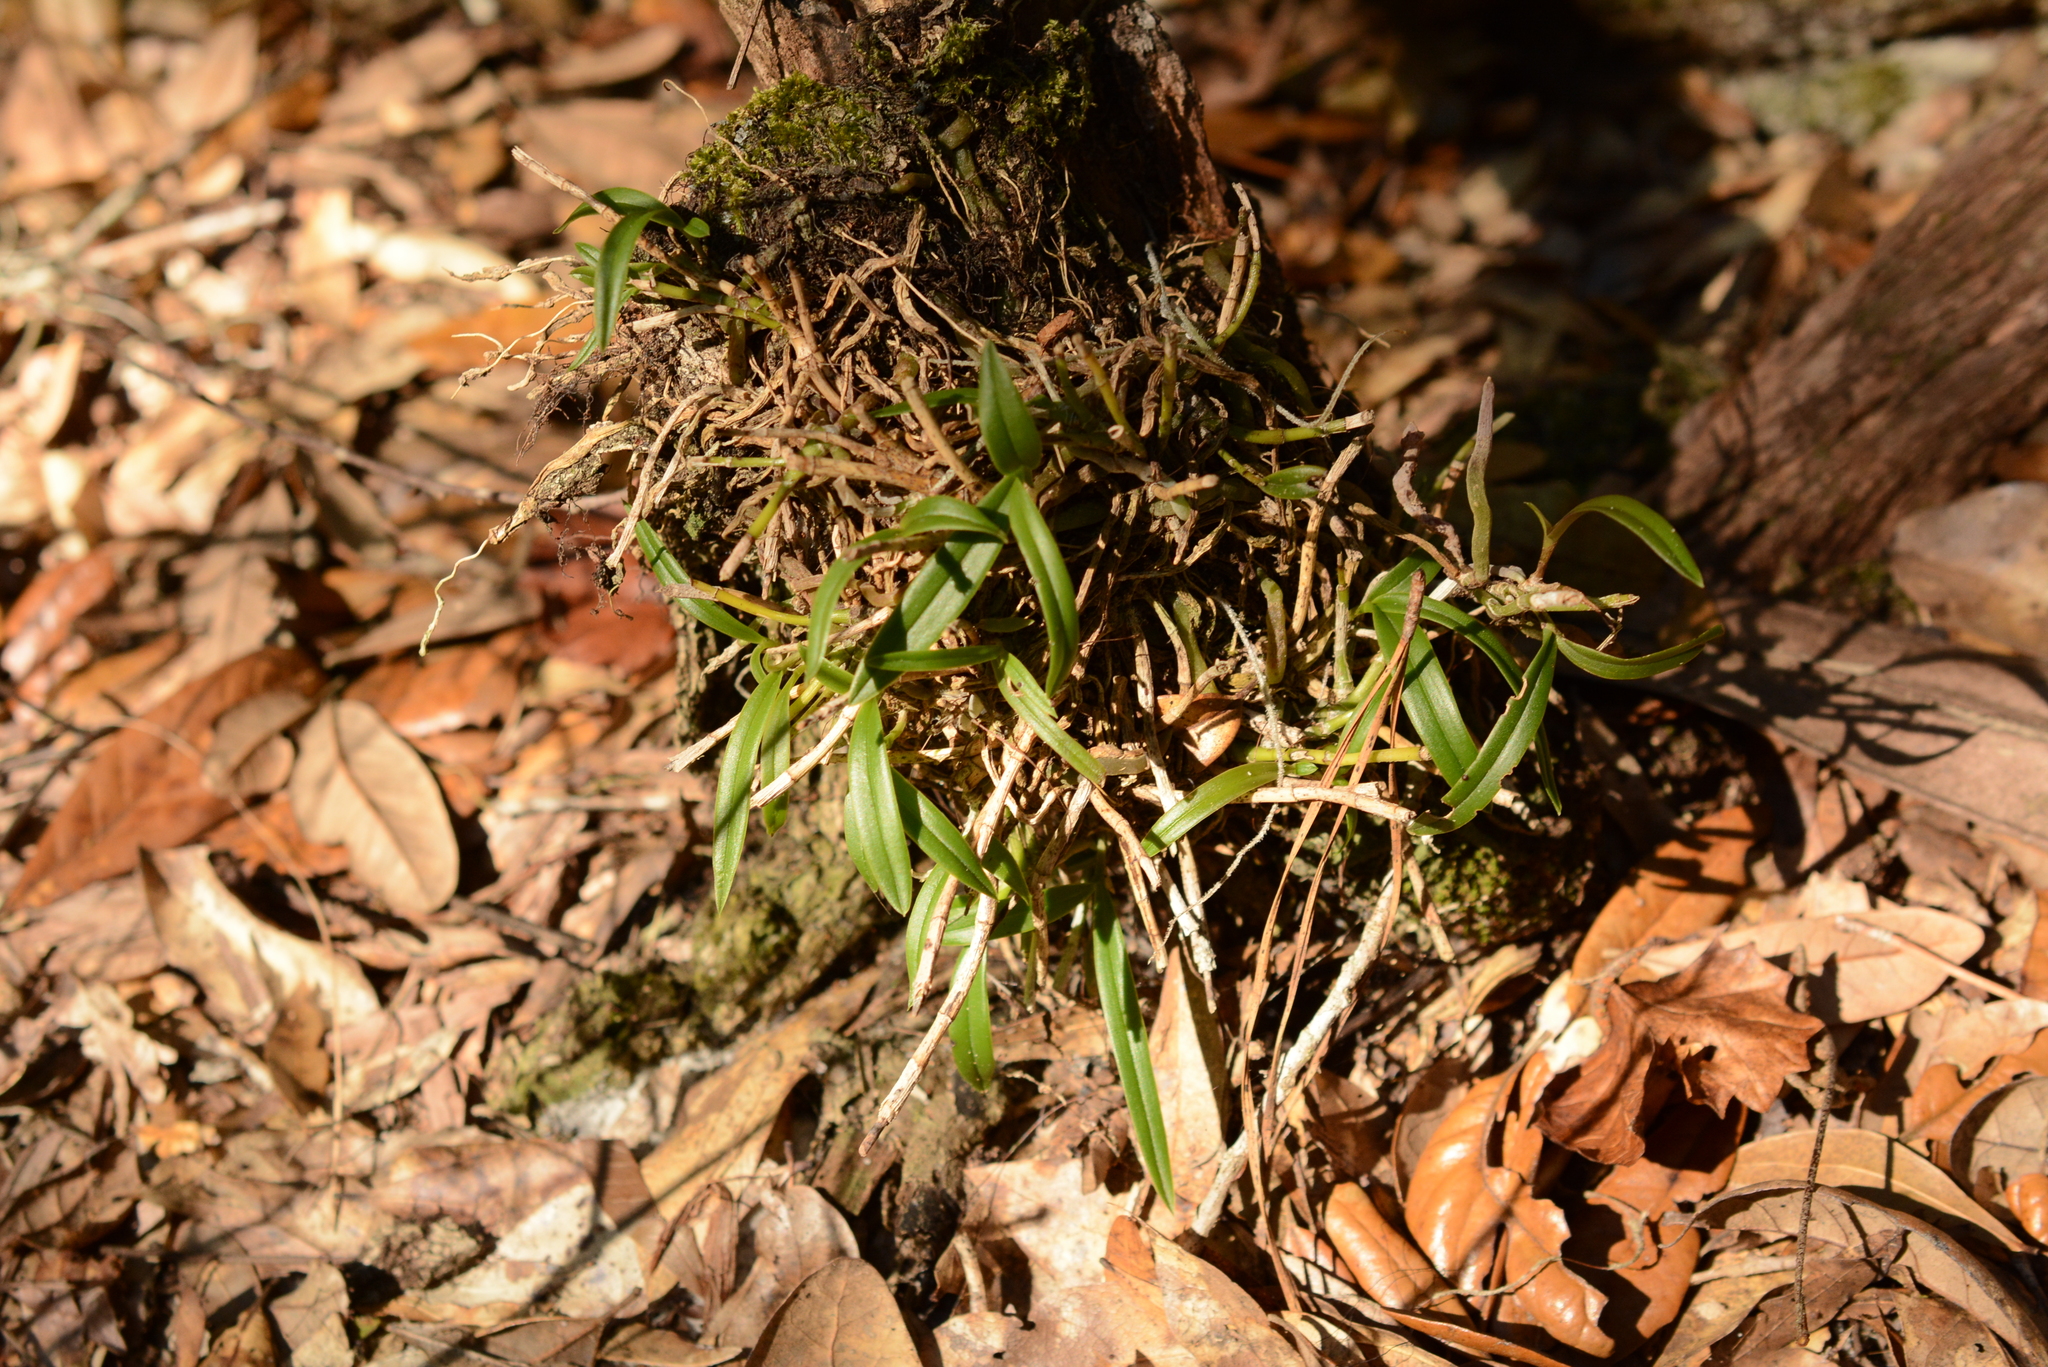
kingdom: Plantae
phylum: Tracheophyta
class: Liliopsida
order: Asparagales
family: Orchidaceae
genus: Epidendrum
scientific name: Epidendrum conopseum
